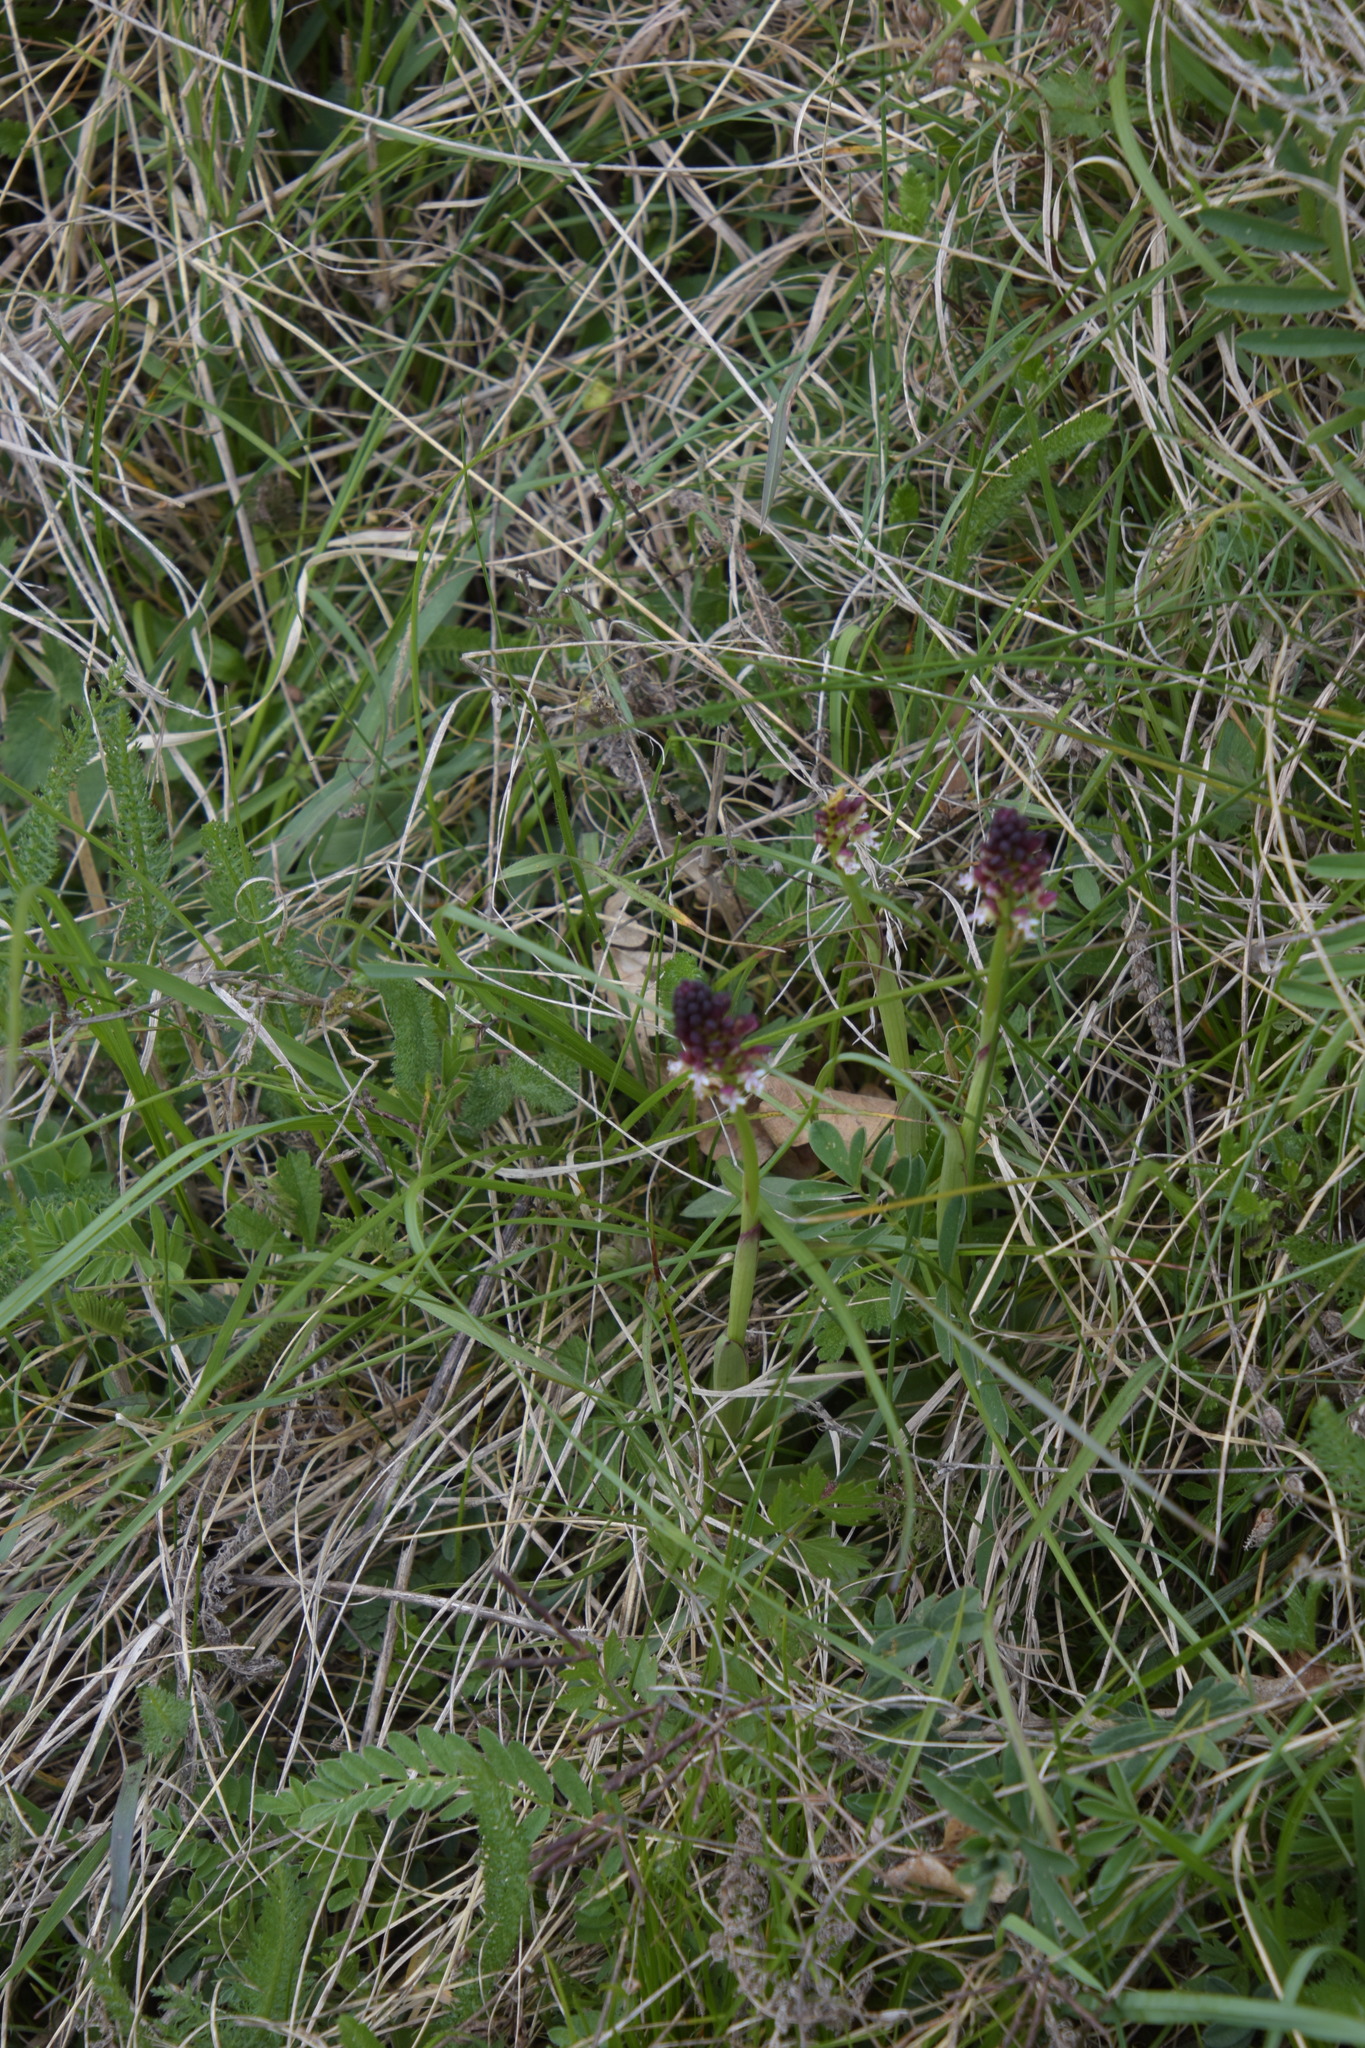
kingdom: Plantae
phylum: Tracheophyta
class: Liliopsida
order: Asparagales
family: Orchidaceae
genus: Neotinea
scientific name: Neotinea ustulata
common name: Burnt orchid
